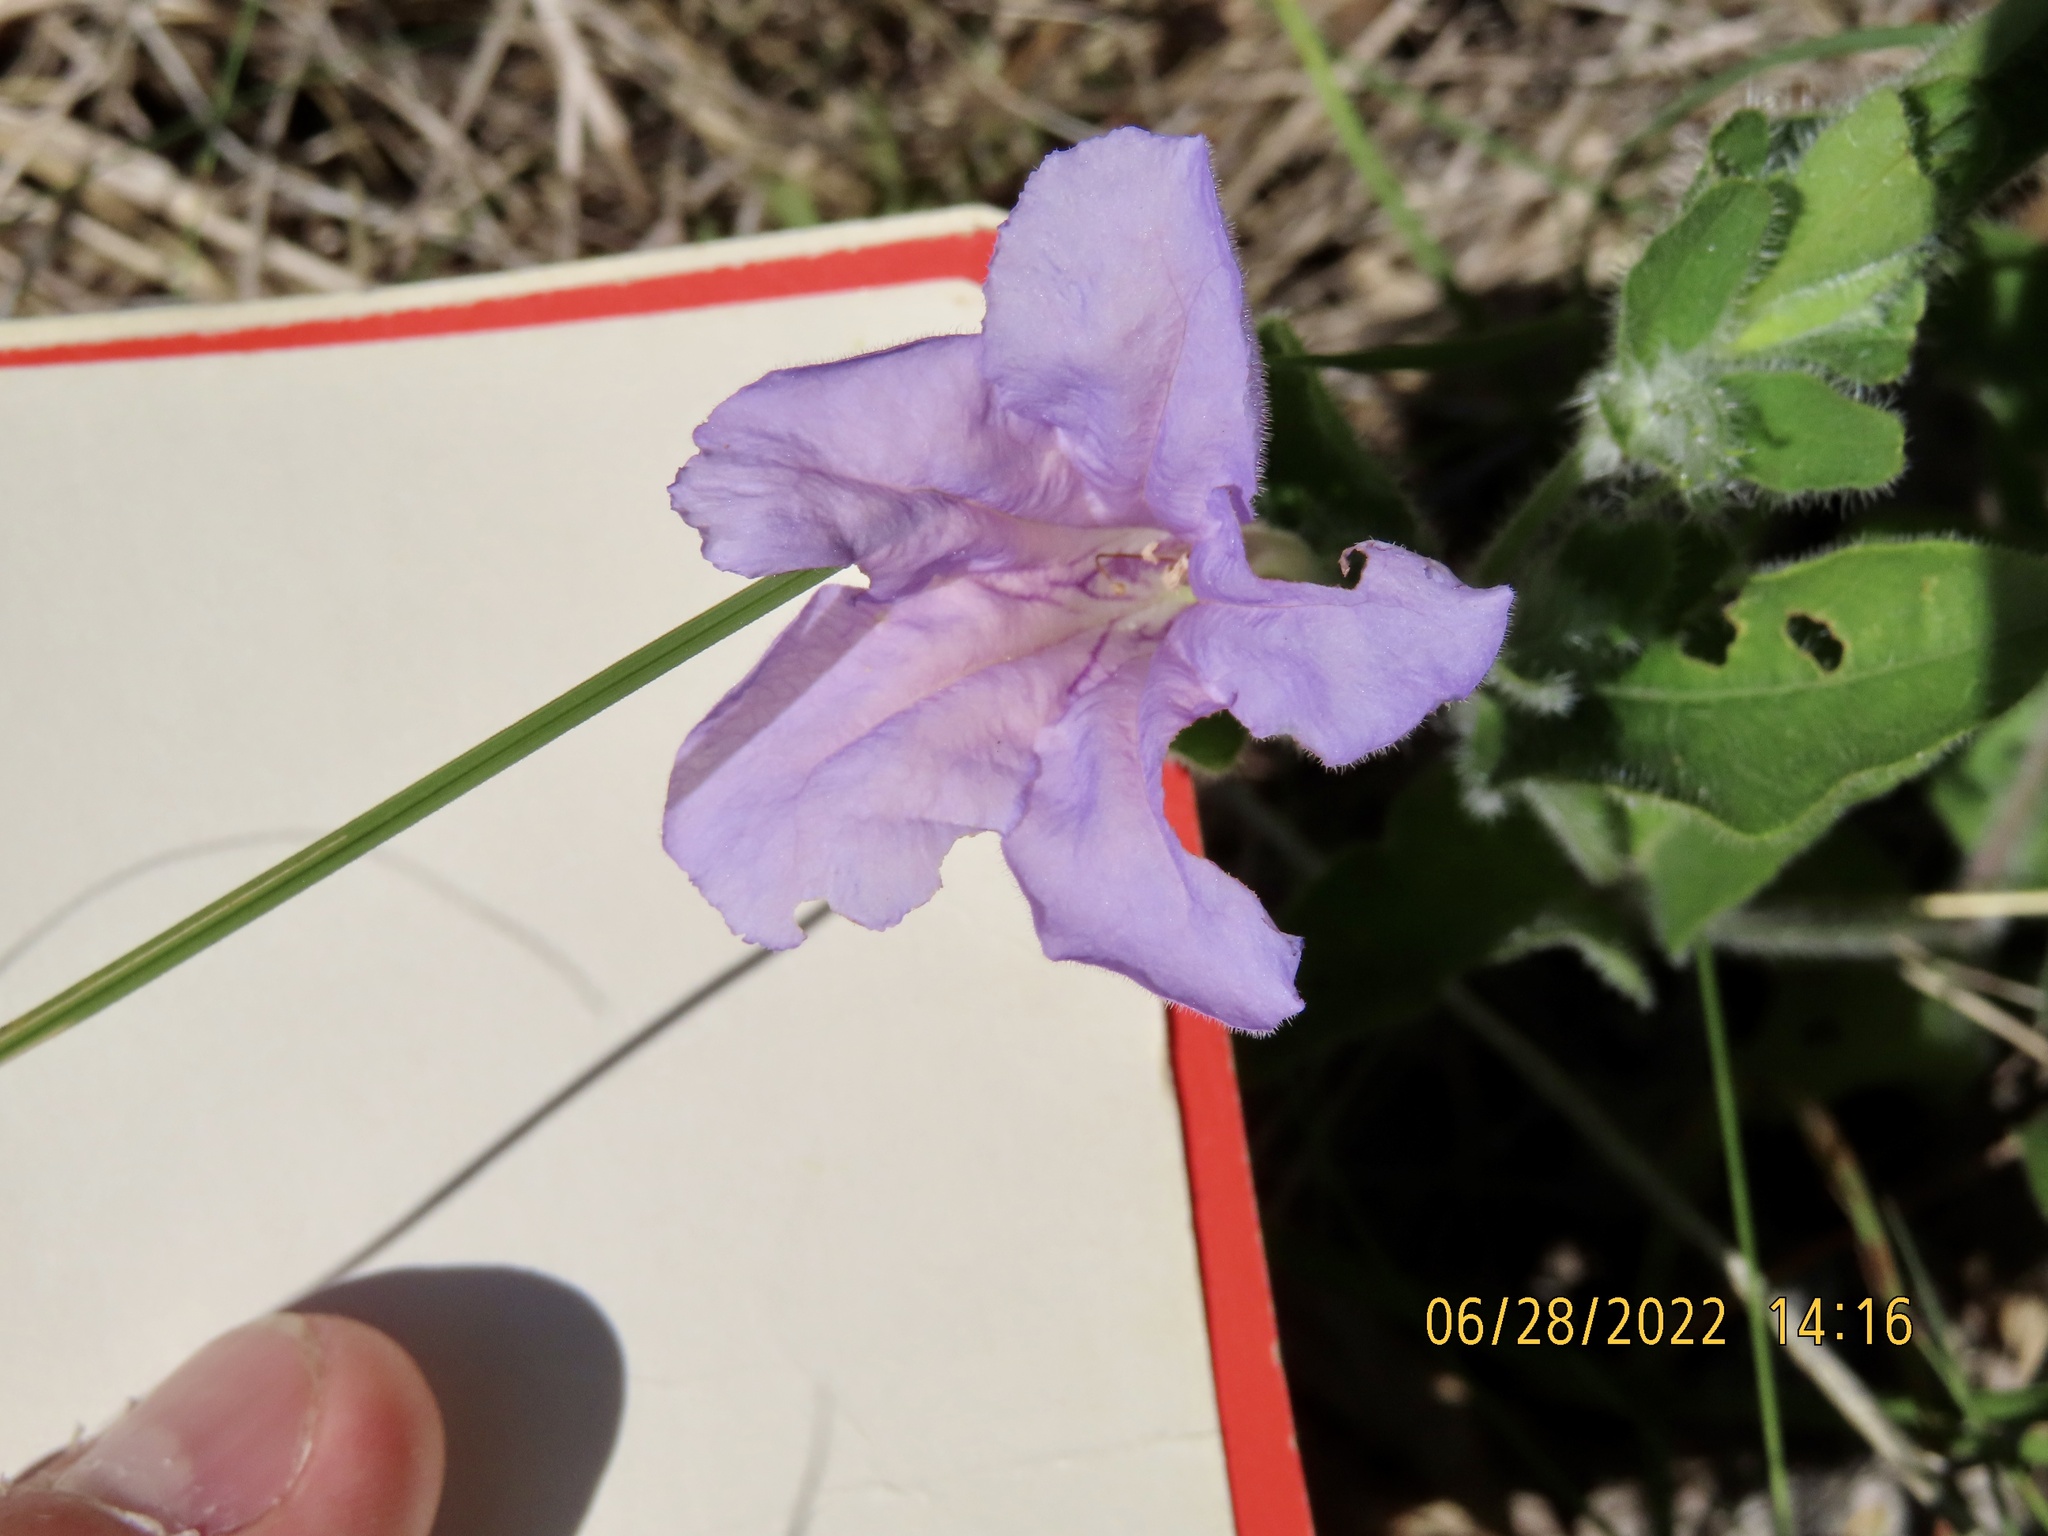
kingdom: Plantae
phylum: Tracheophyta
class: Magnoliopsida
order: Lamiales
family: Acanthaceae
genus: Ruellia
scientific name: Ruellia humilis
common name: Fringe-leaf ruellia
